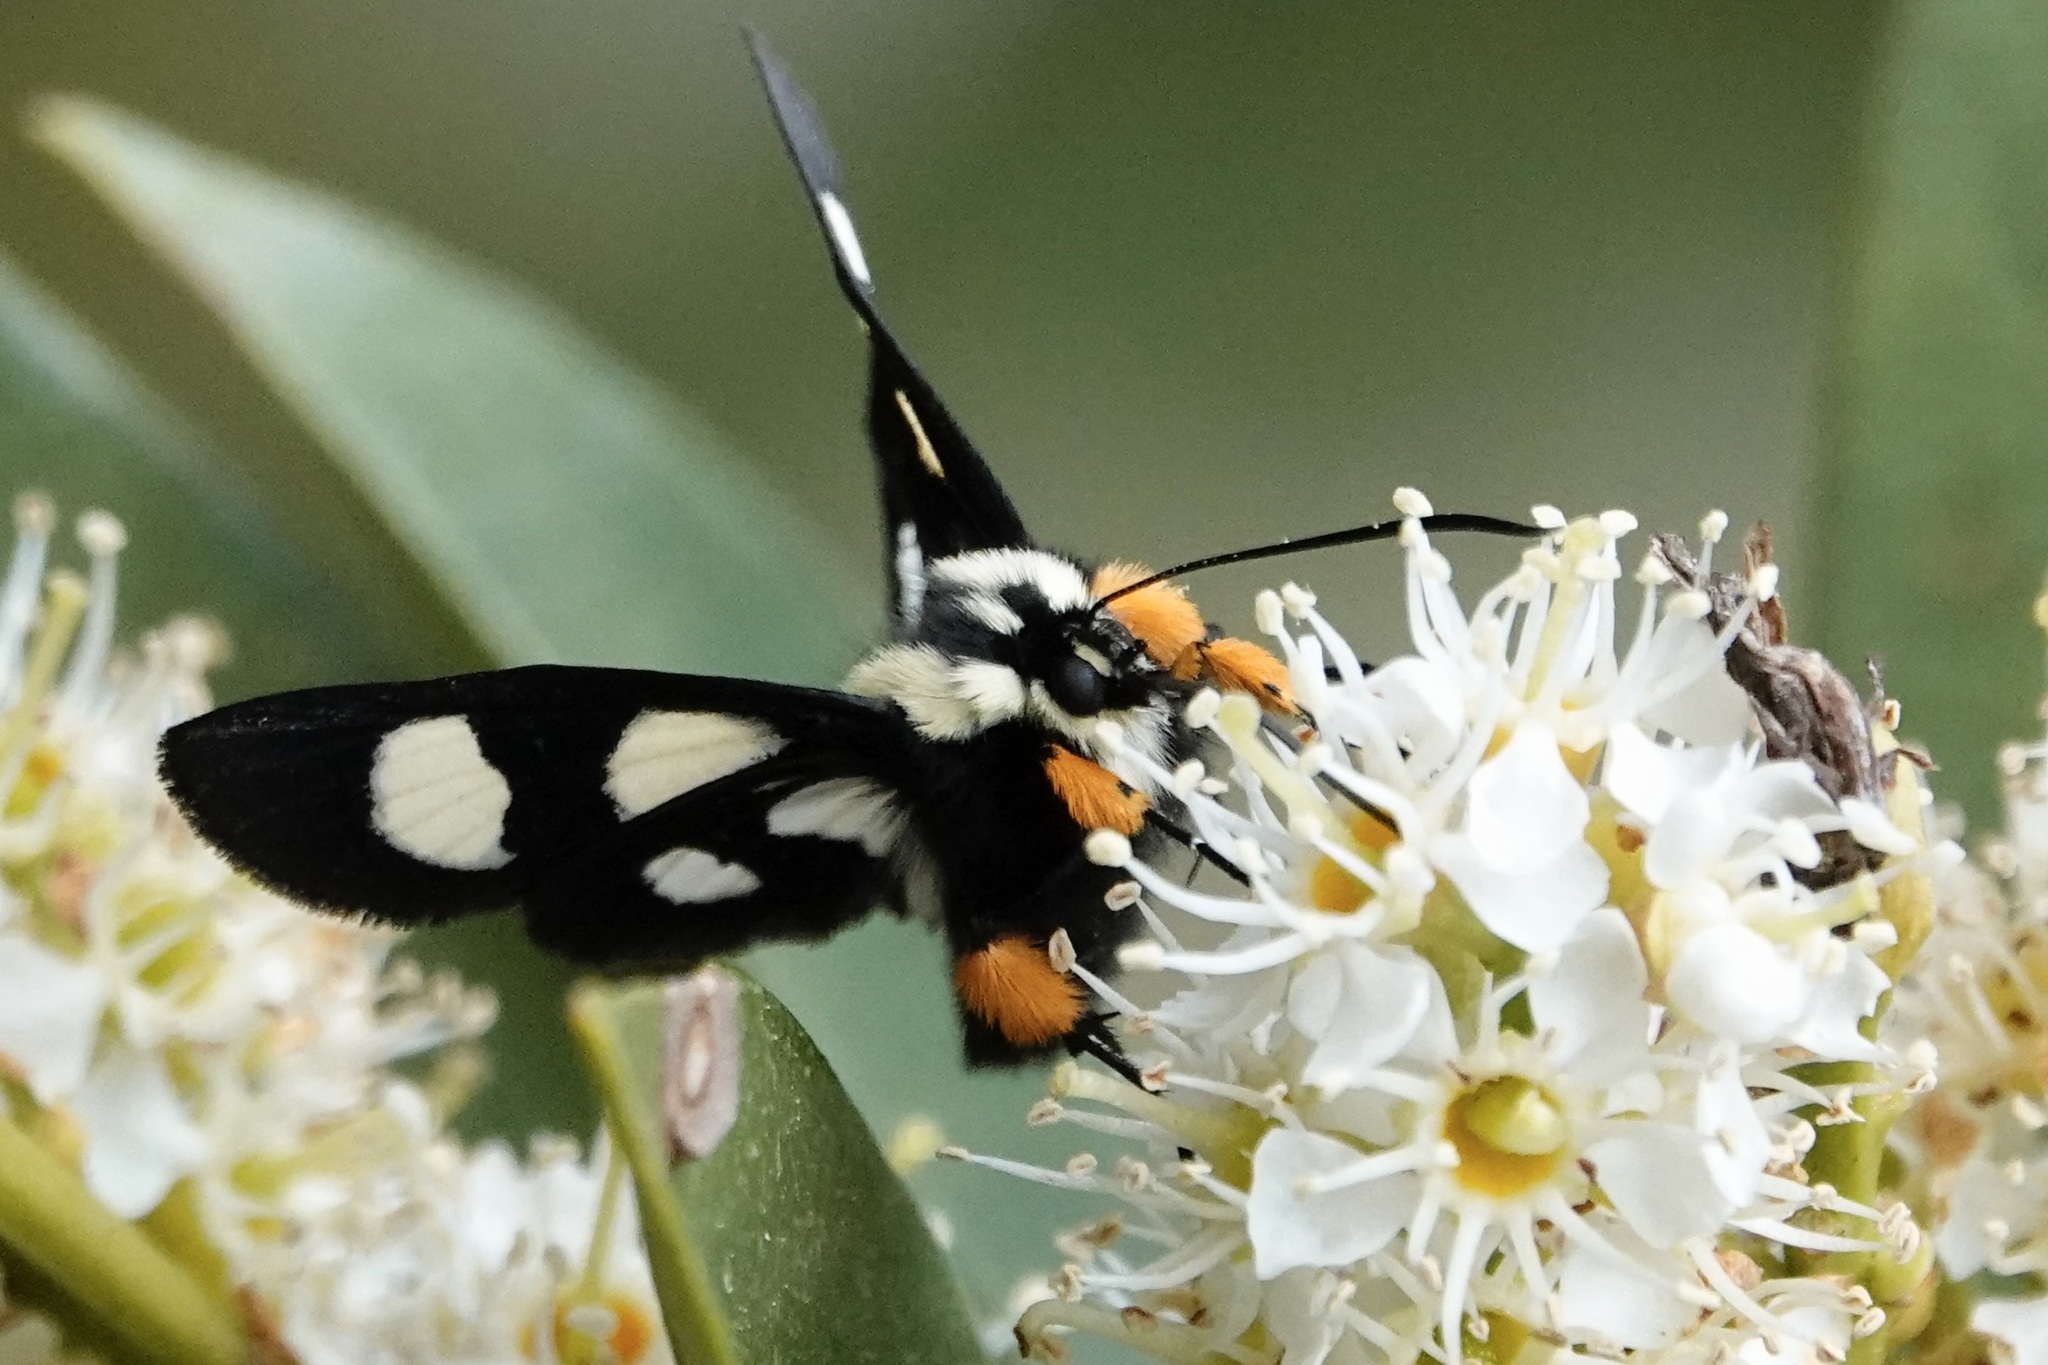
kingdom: Animalia
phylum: Arthropoda
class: Insecta
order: Lepidoptera
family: Noctuidae
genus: Alypia
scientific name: Alypia octomaculata
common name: Eight-spotted forester
